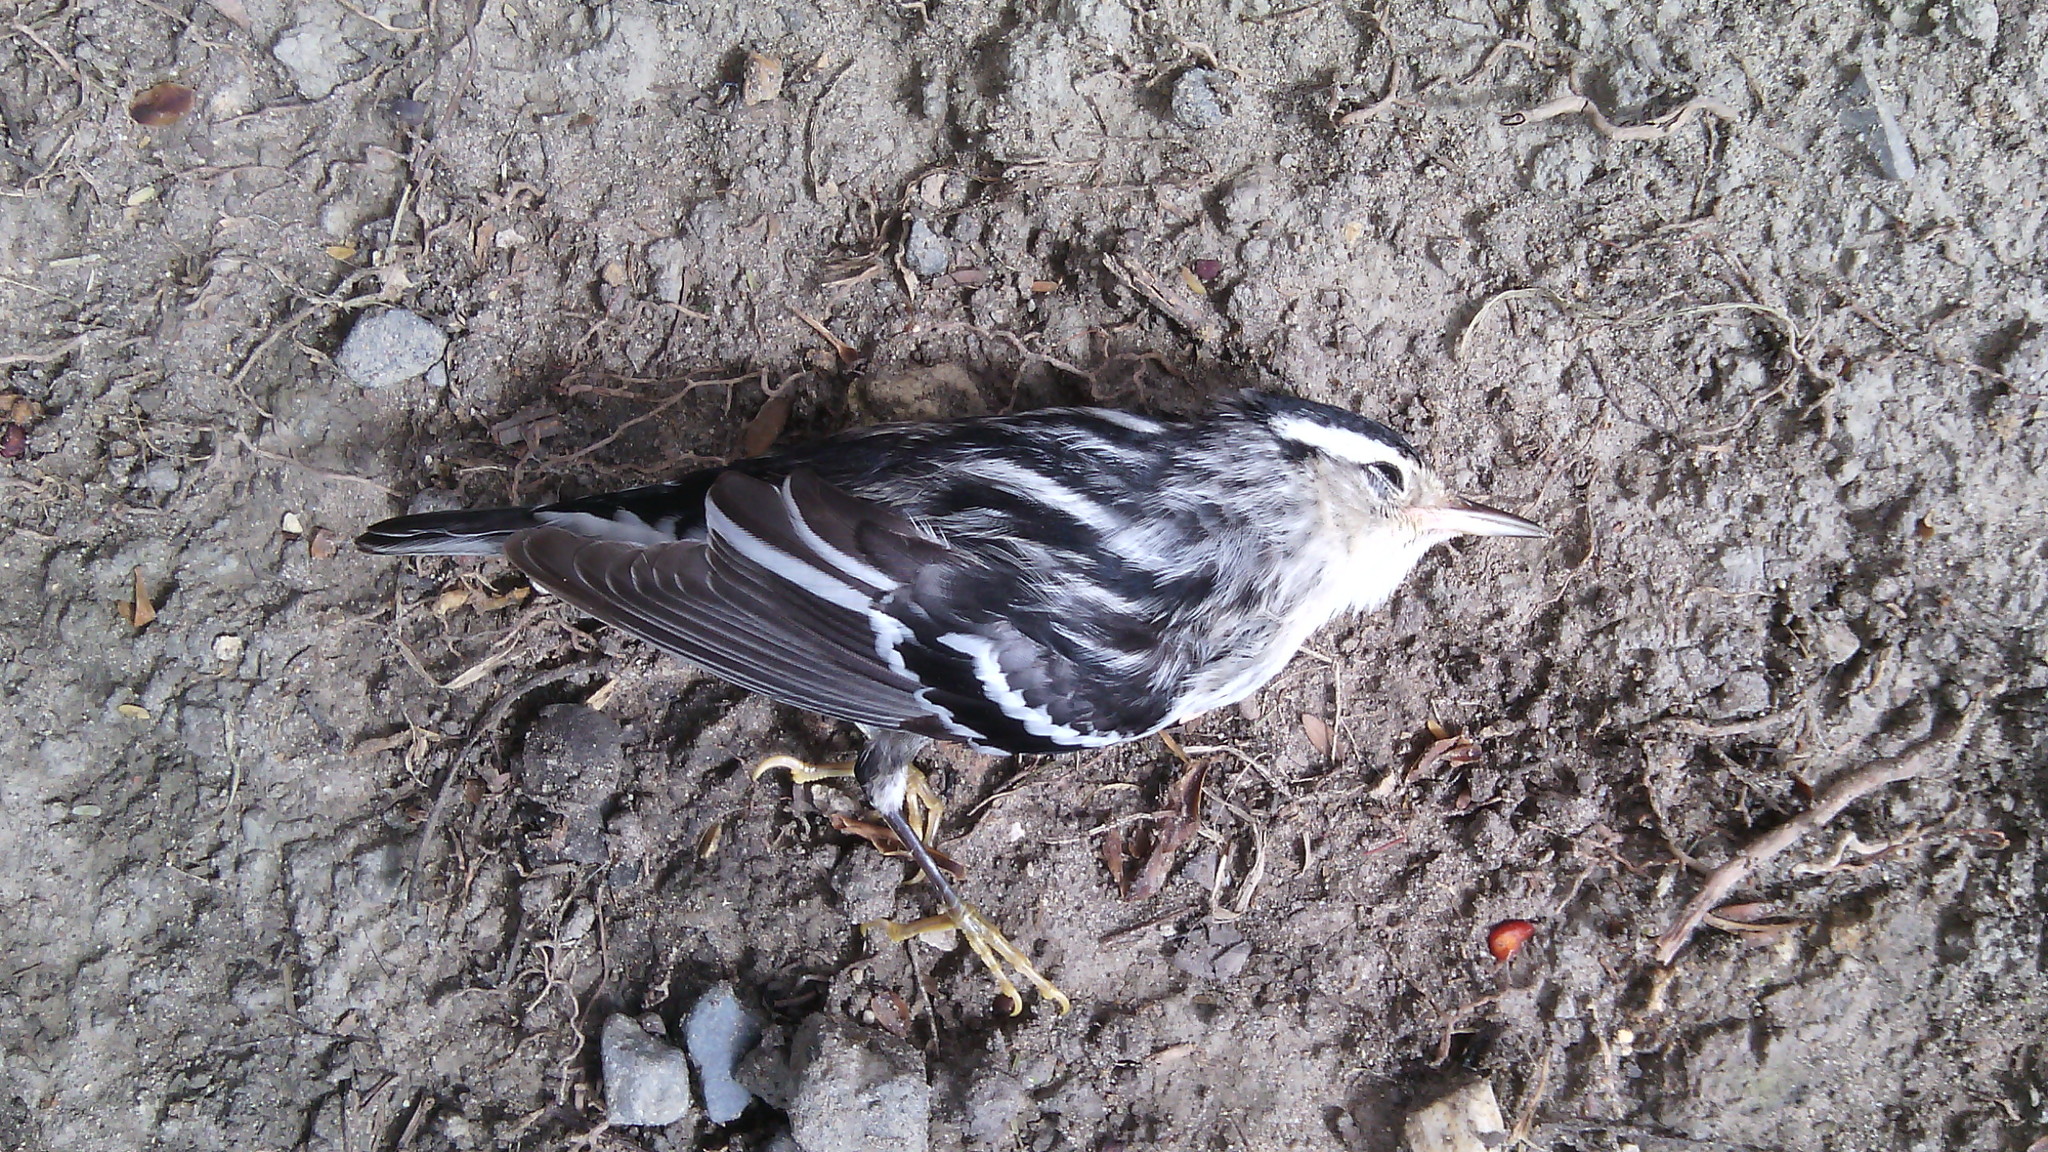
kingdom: Animalia
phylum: Chordata
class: Aves
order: Passeriformes
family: Parulidae
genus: Mniotilta
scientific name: Mniotilta varia
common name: Black-and-white warbler
